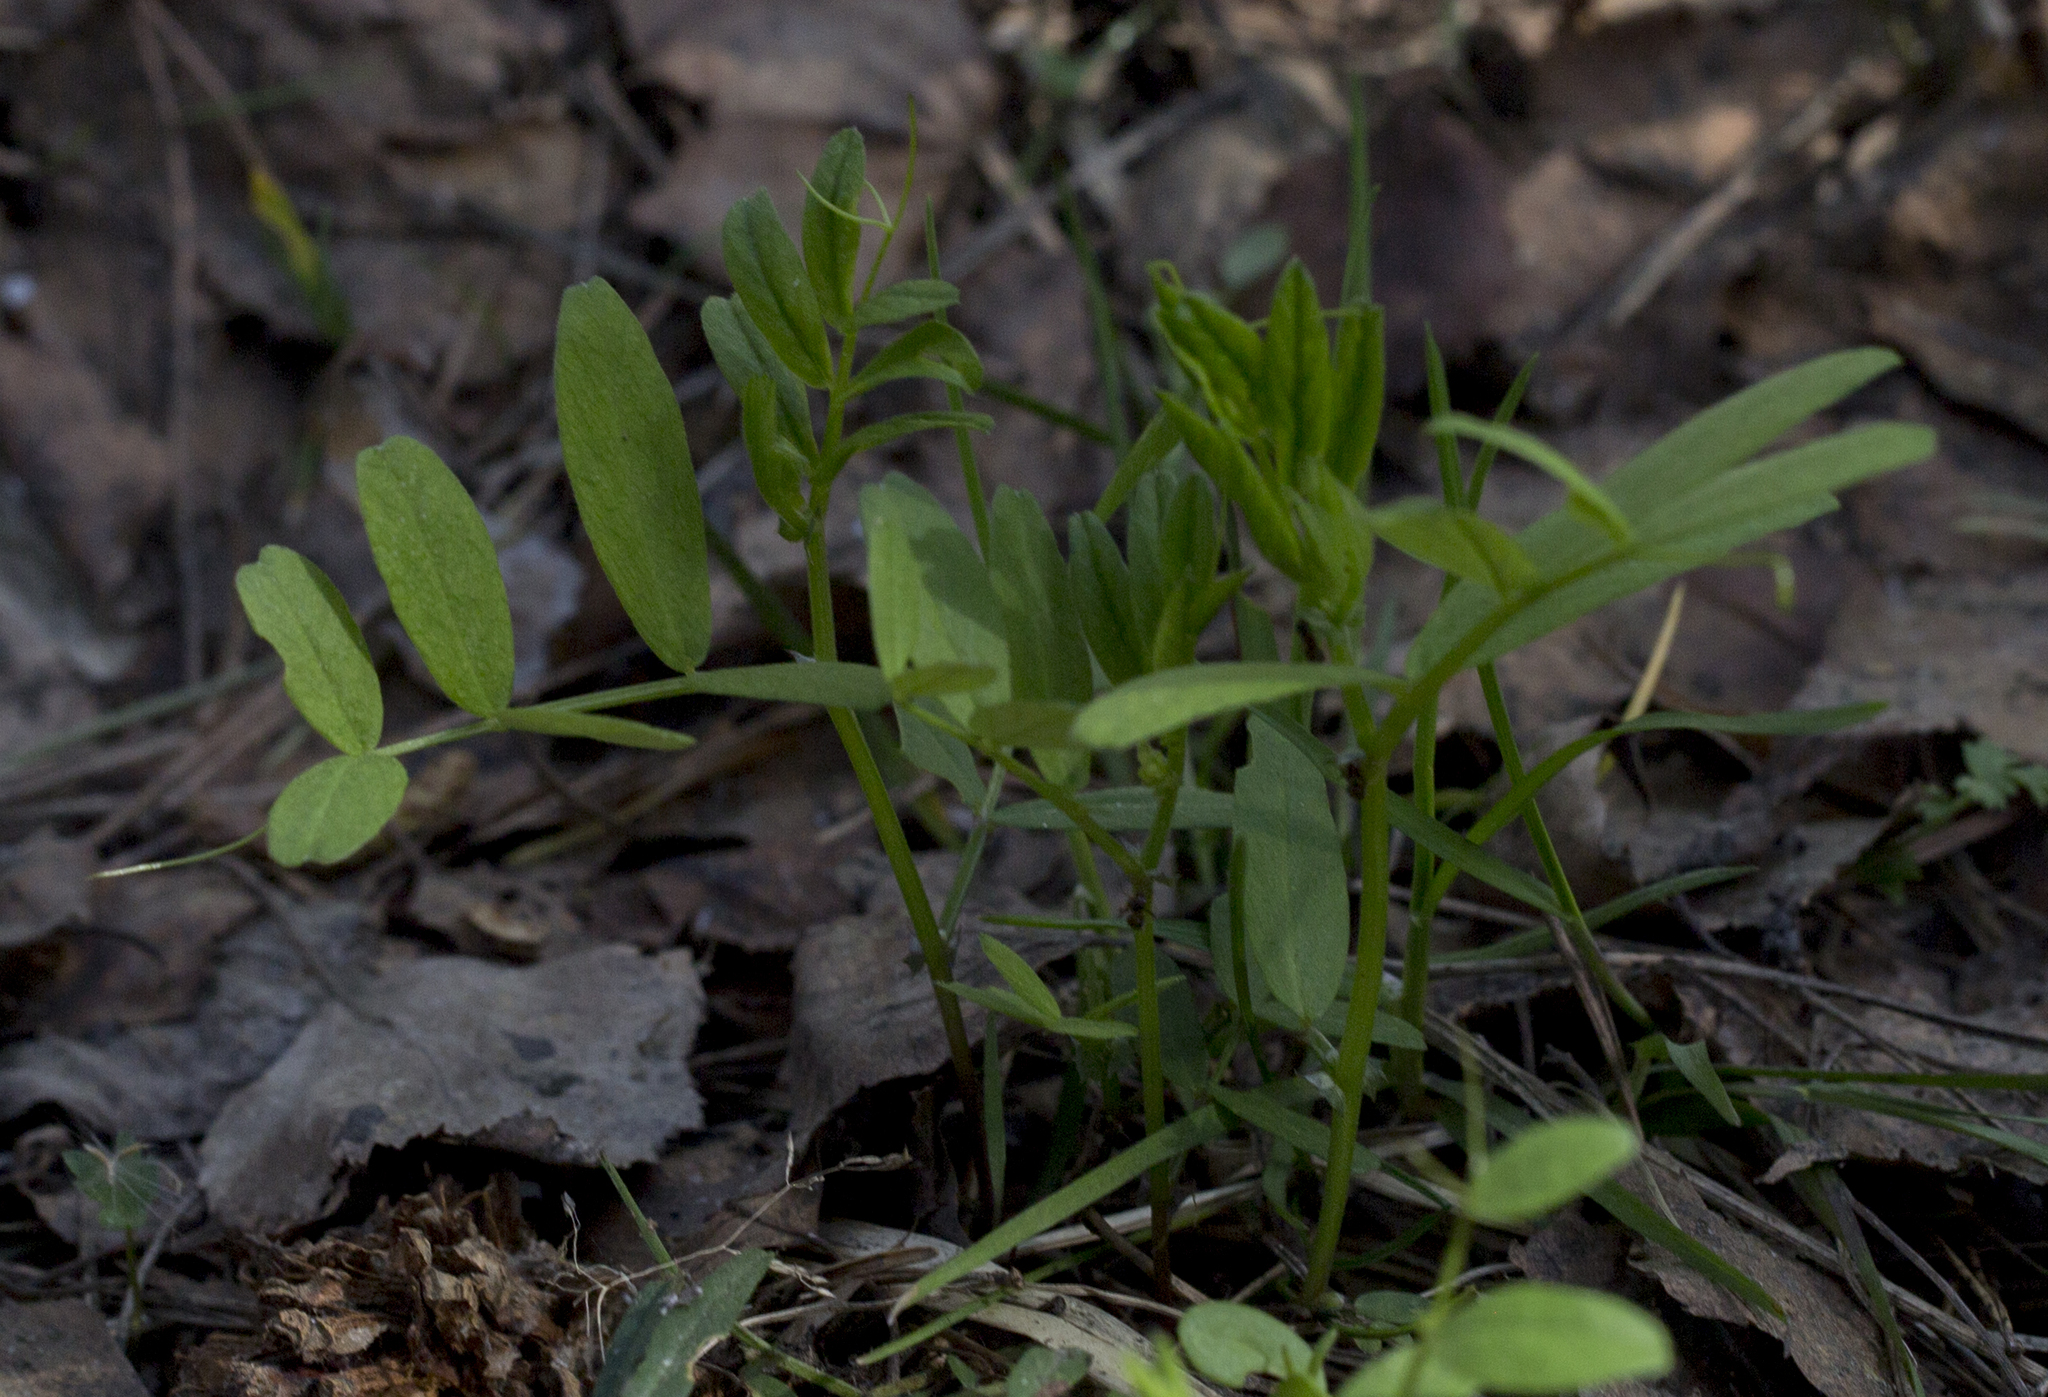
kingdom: Plantae
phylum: Tracheophyta
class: Magnoliopsida
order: Fabales
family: Fabaceae
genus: Vicia
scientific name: Vicia sepium
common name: Bush vetch
